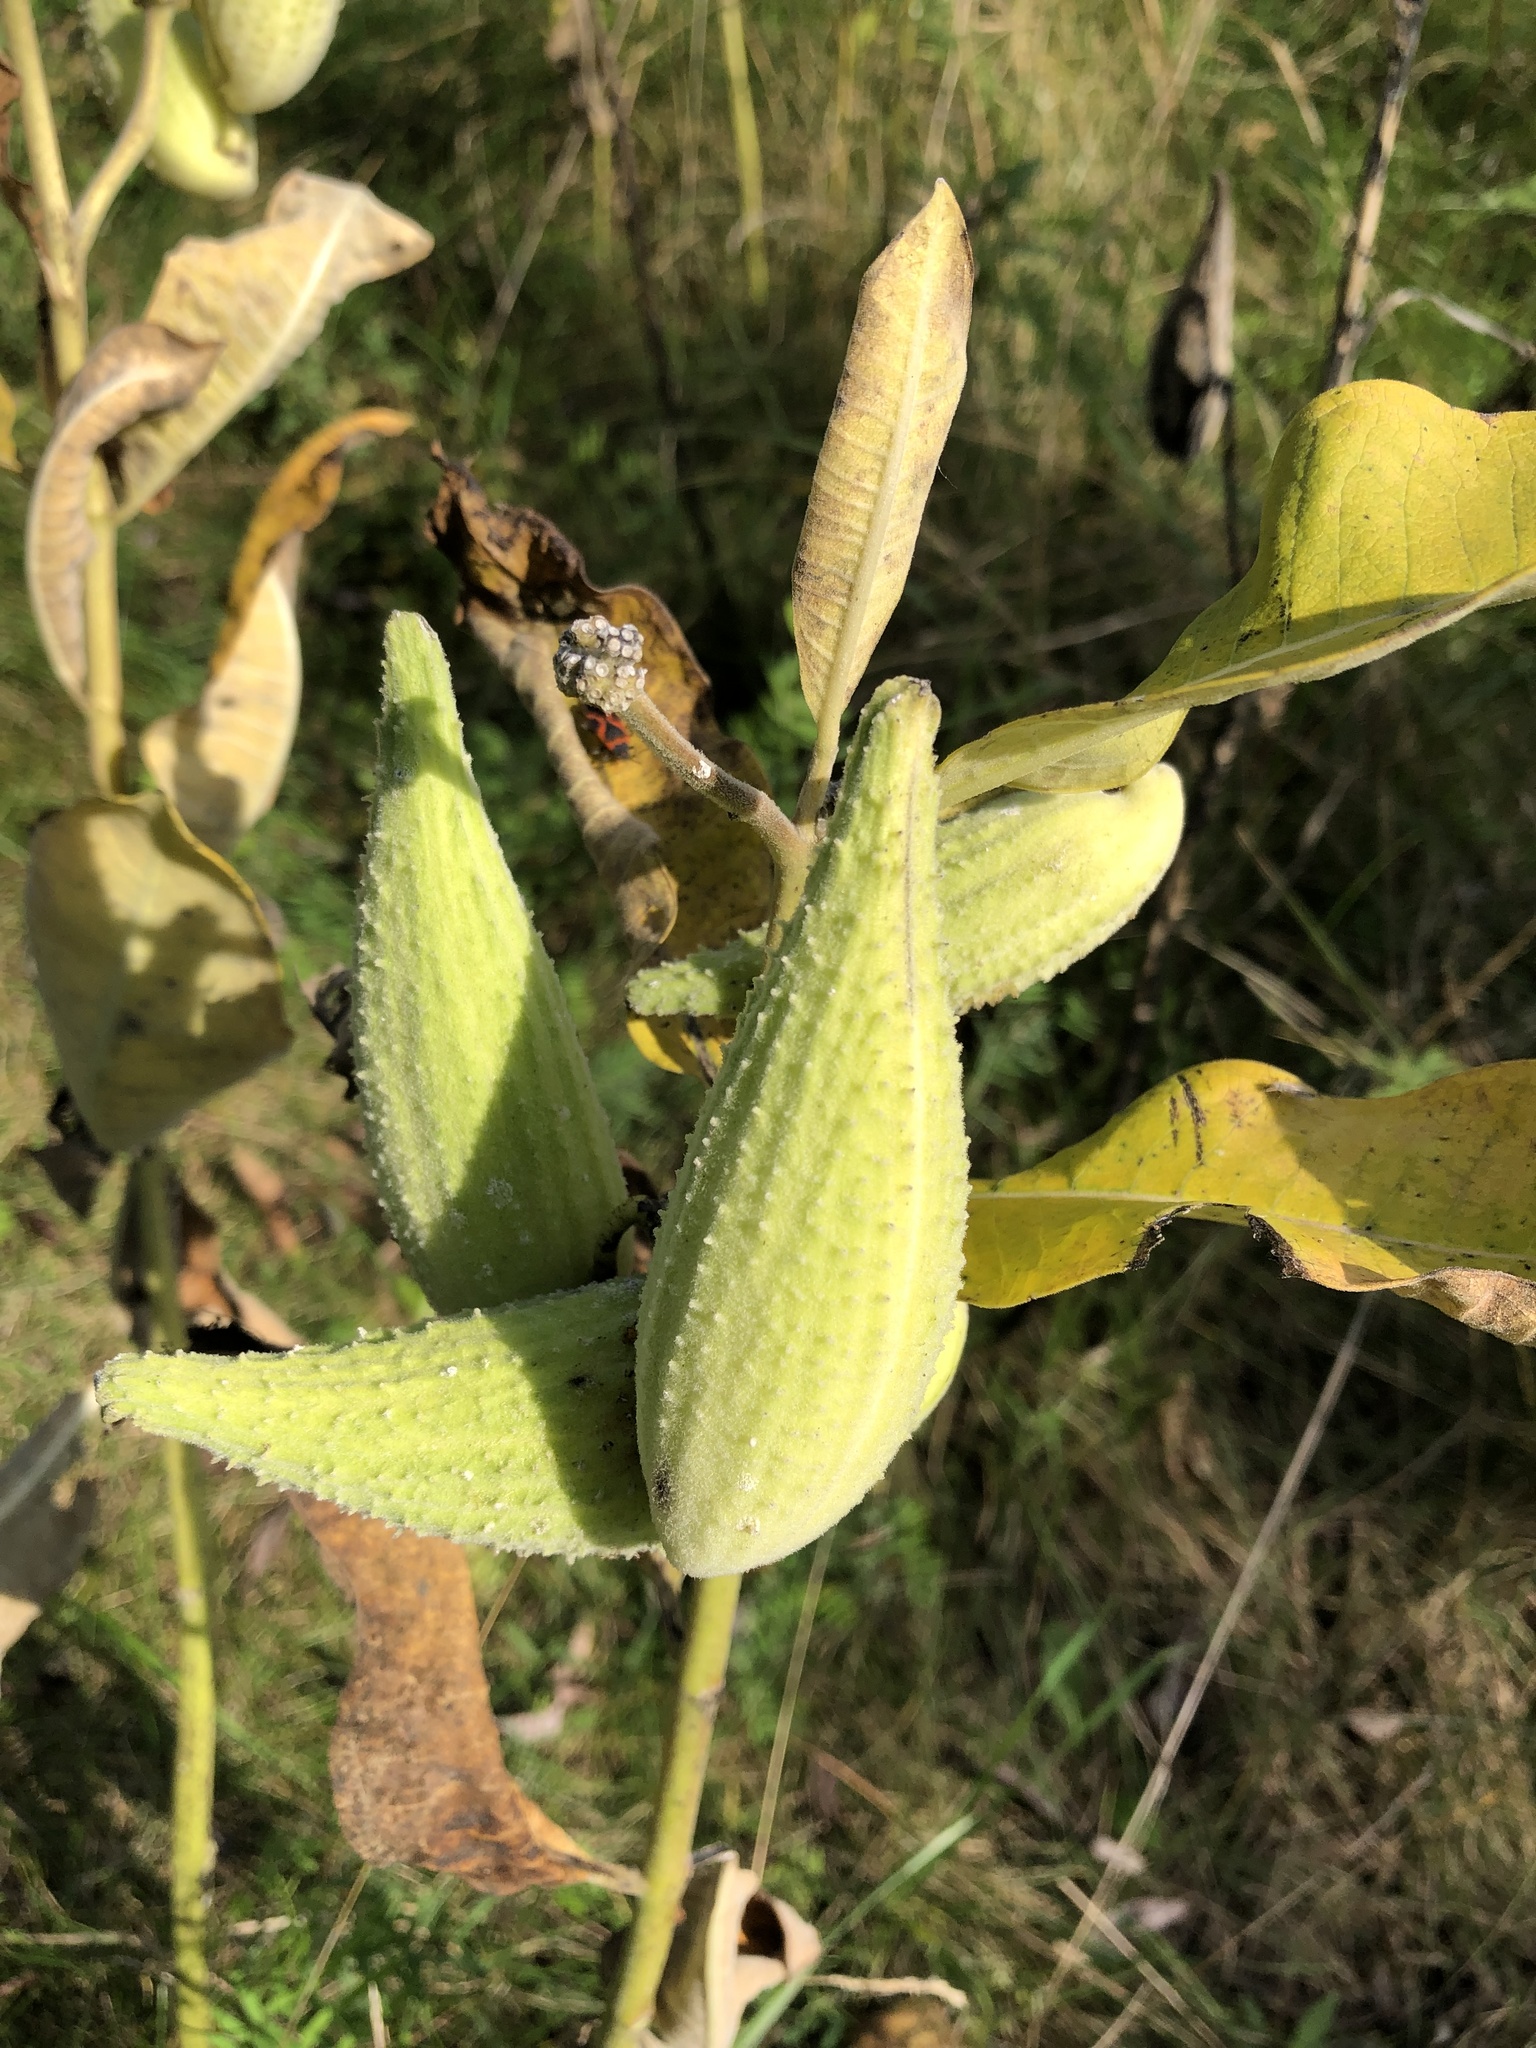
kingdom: Plantae
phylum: Tracheophyta
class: Magnoliopsida
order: Gentianales
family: Apocynaceae
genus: Asclepias
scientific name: Asclepias syriaca
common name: Common milkweed
